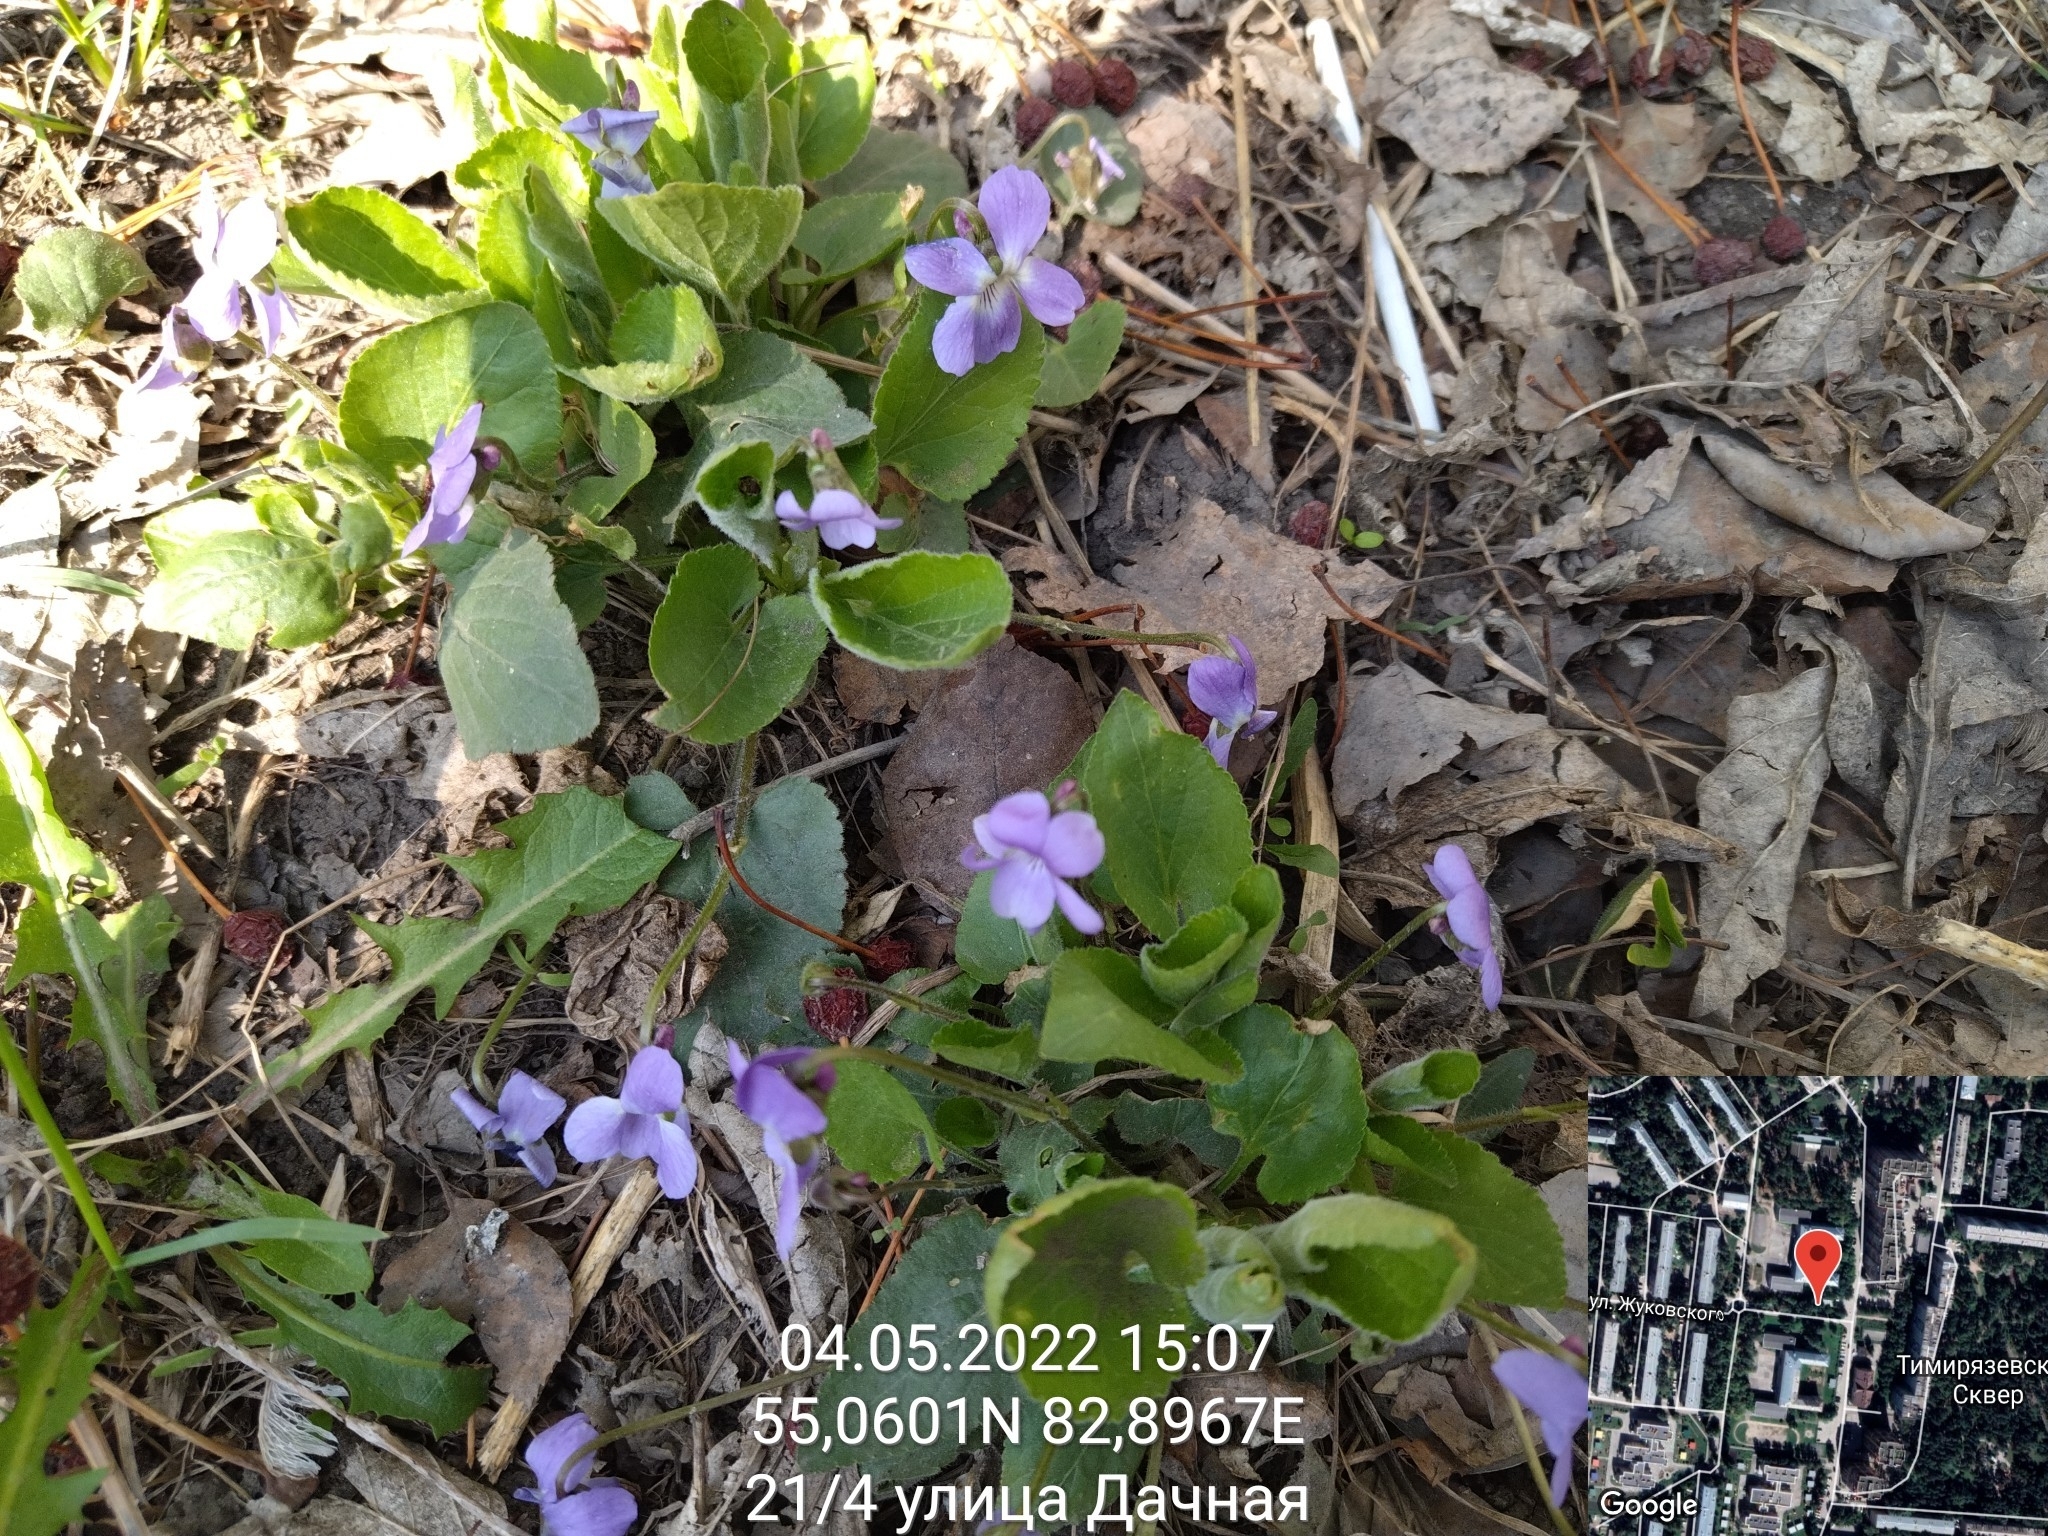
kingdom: Plantae
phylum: Tracheophyta
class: Magnoliopsida
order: Malpighiales
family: Violaceae
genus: Viola
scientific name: Viola hirta
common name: Hairy violet
